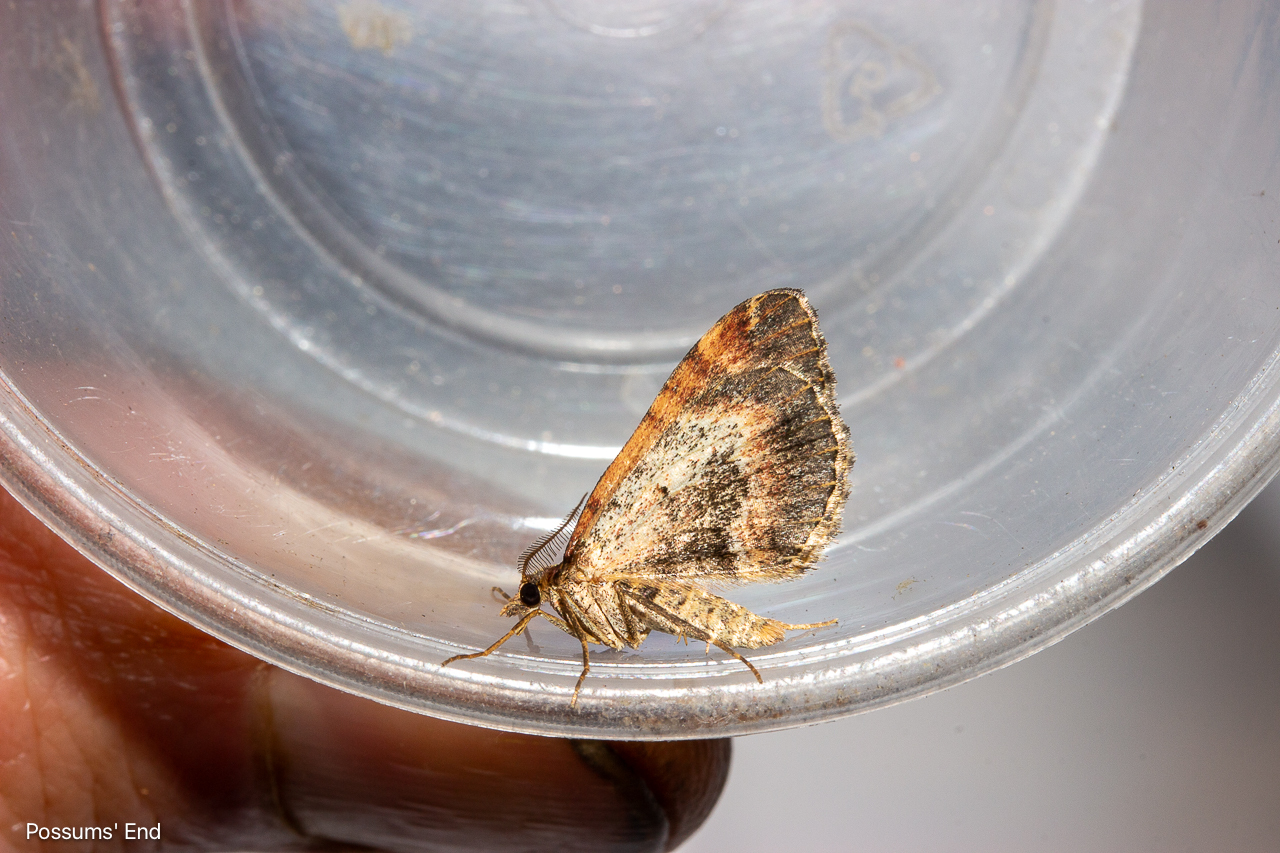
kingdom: Animalia
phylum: Arthropoda
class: Insecta
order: Lepidoptera
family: Geometridae
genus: Asaphodes
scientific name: Asaphodes aegrota
